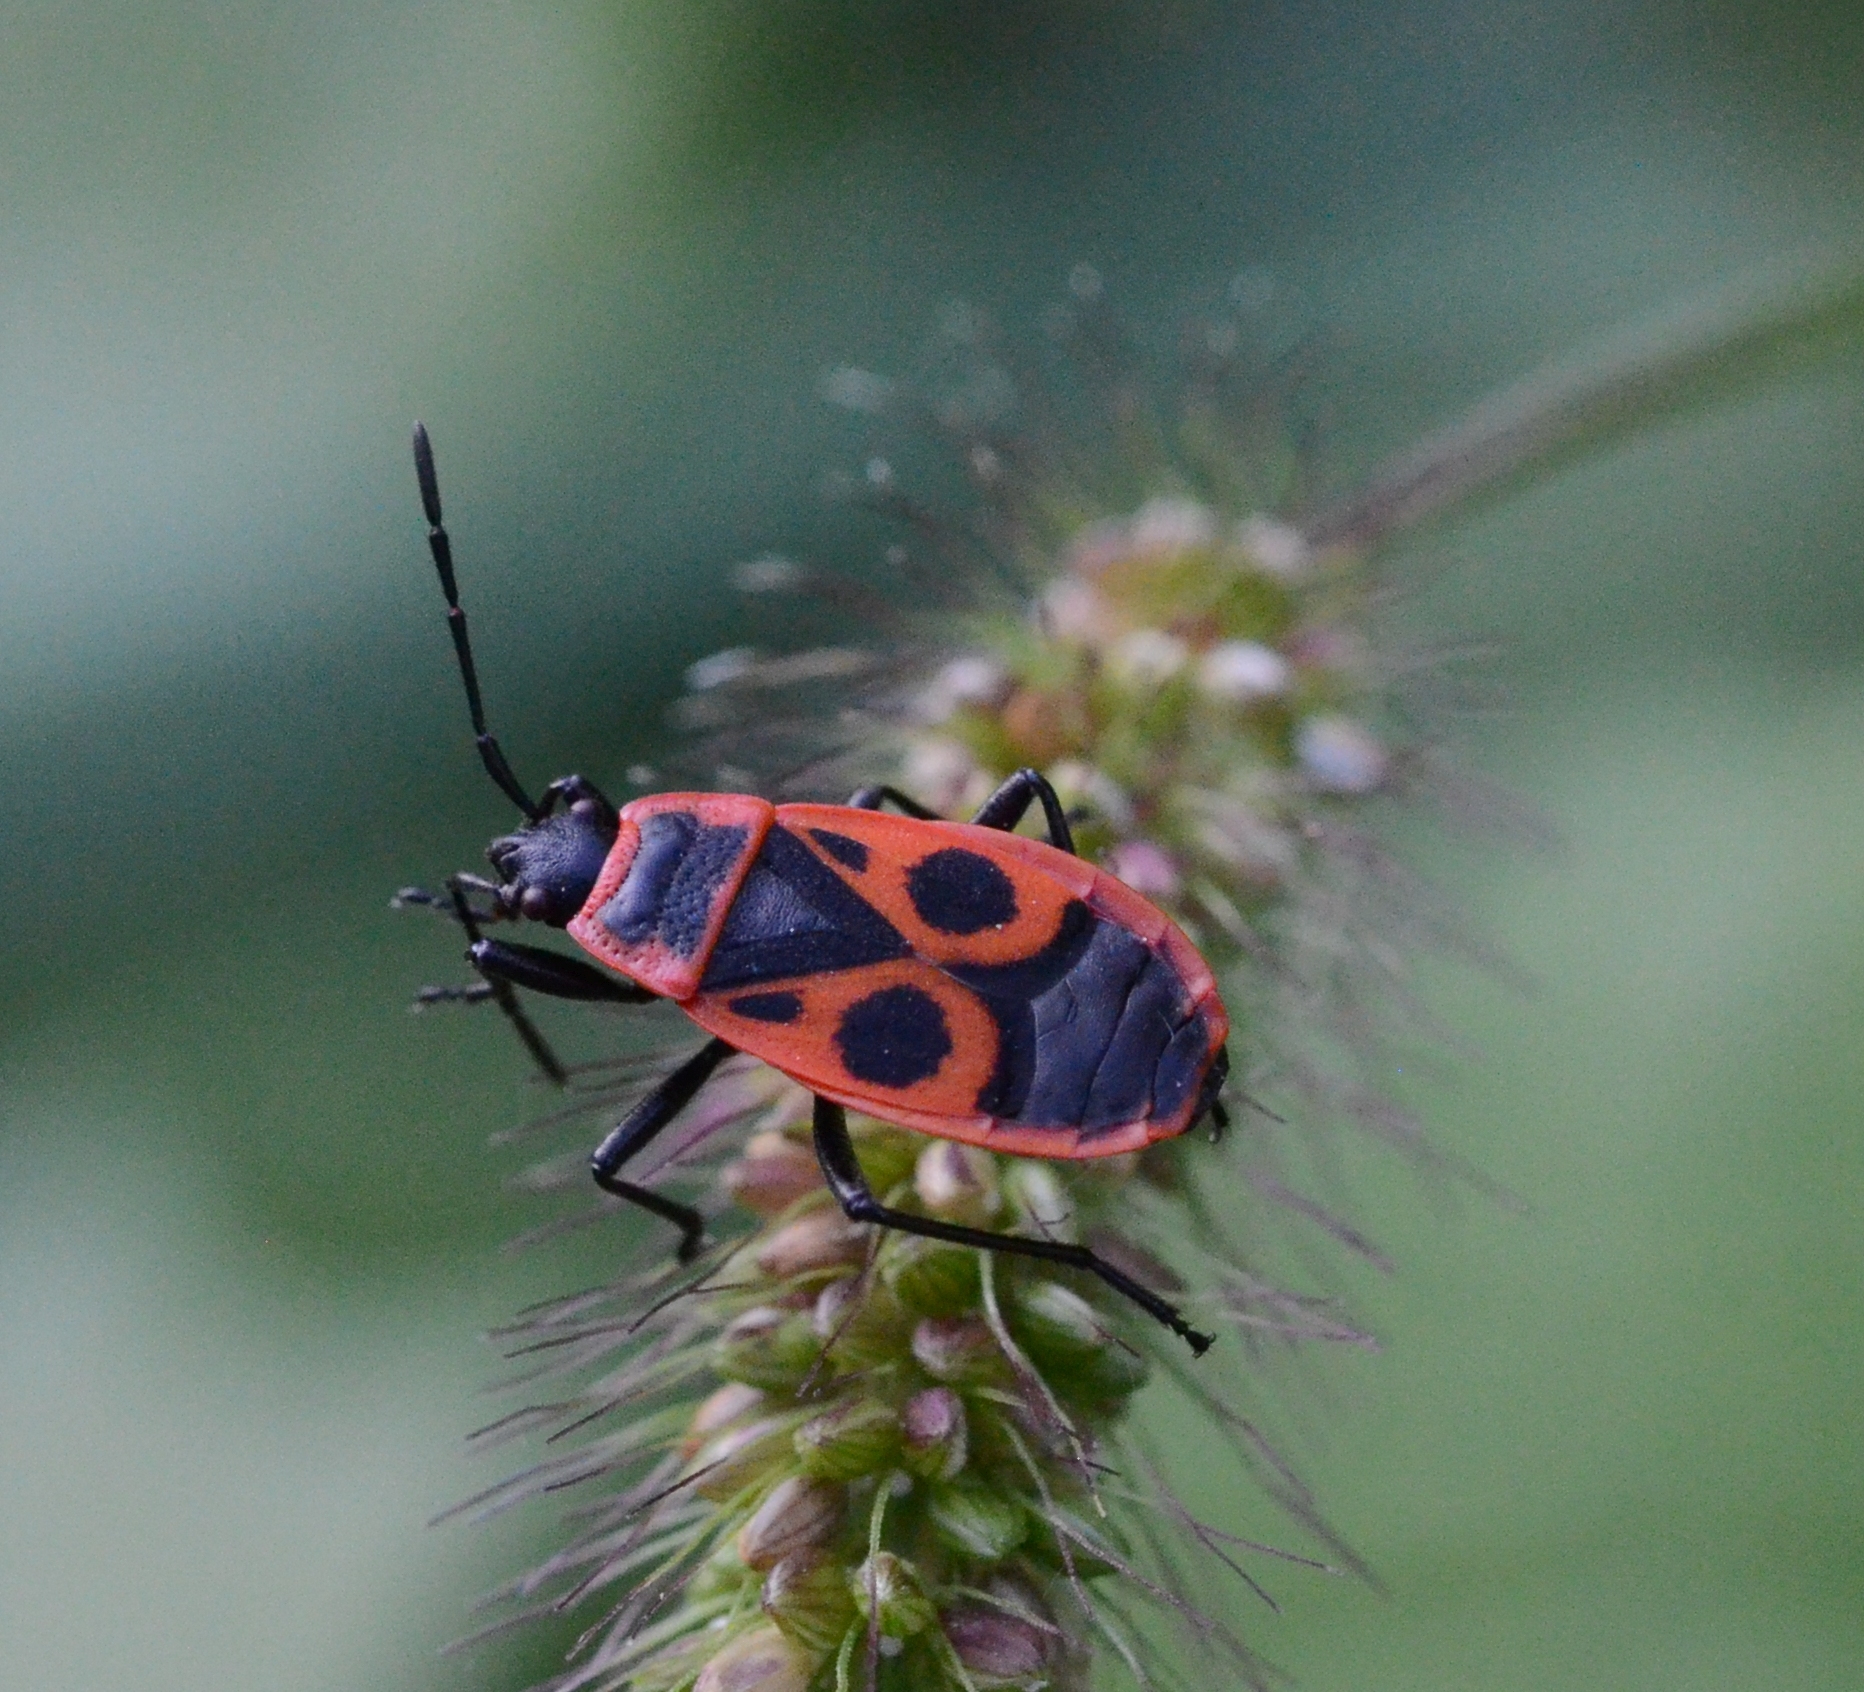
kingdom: Animalia
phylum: Arthropoda
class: Insecta
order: Hemiptera
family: Pyrrhocoridae
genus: Pyrrhocoris
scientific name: Pyrrhocoris apterus
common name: Firebug
